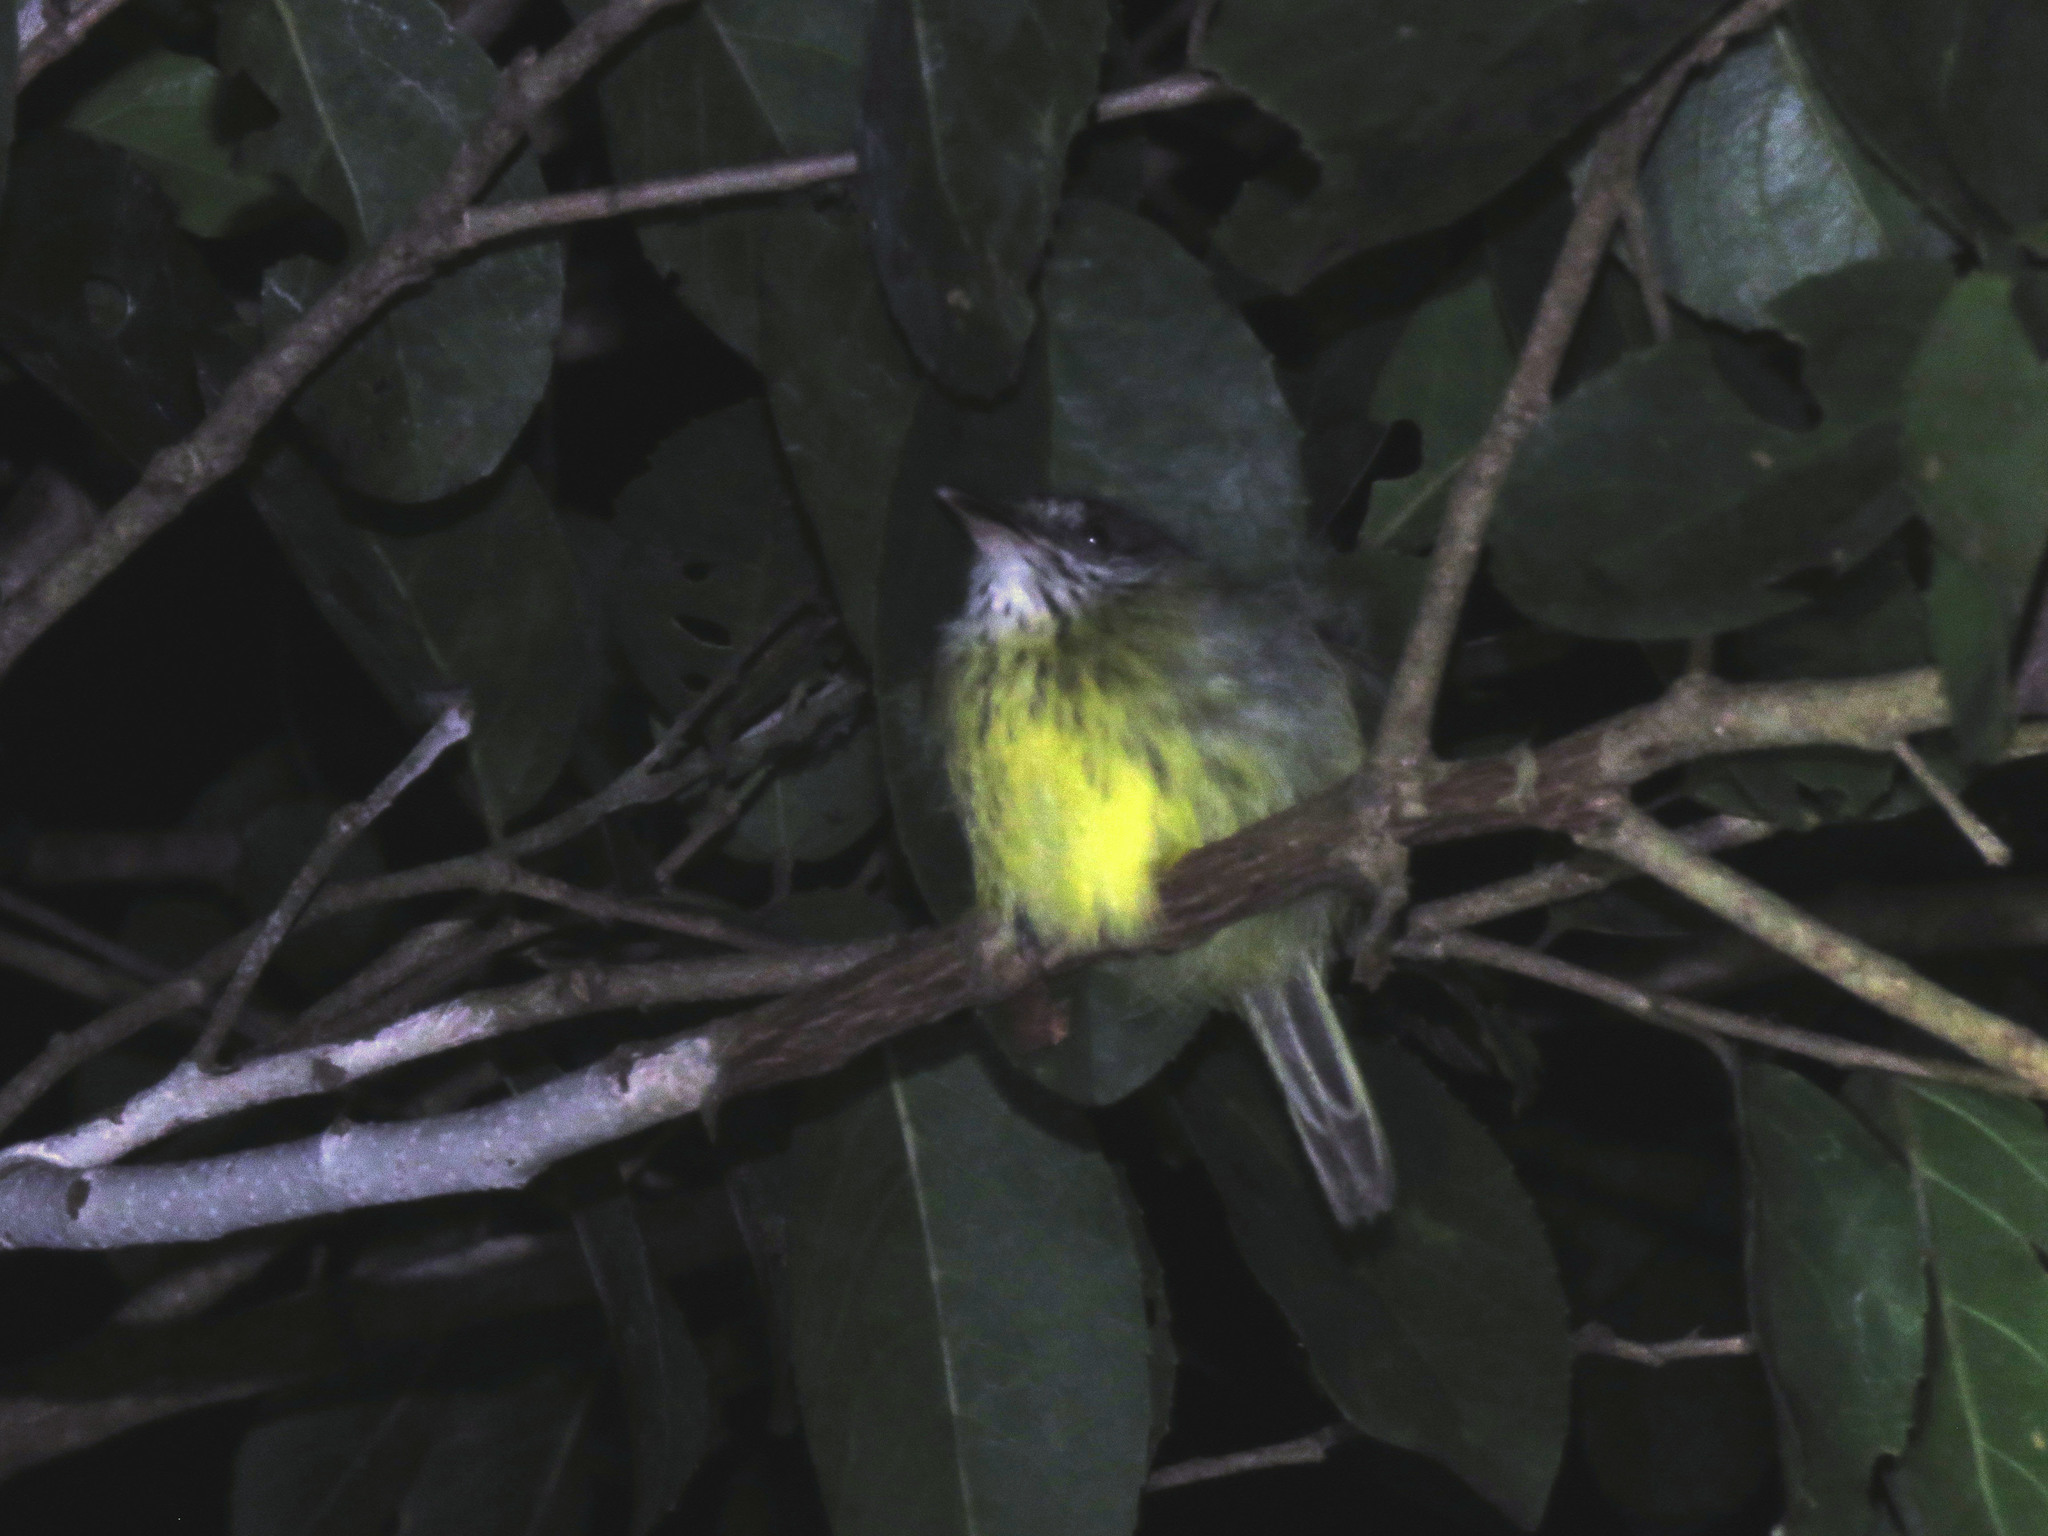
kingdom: Animalia
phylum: Chordata
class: Aves
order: Passeriformes
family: Tyrannidae
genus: Hemitriccus
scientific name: Hemitriccus iohannis
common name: Johannes's tody-tyrant
